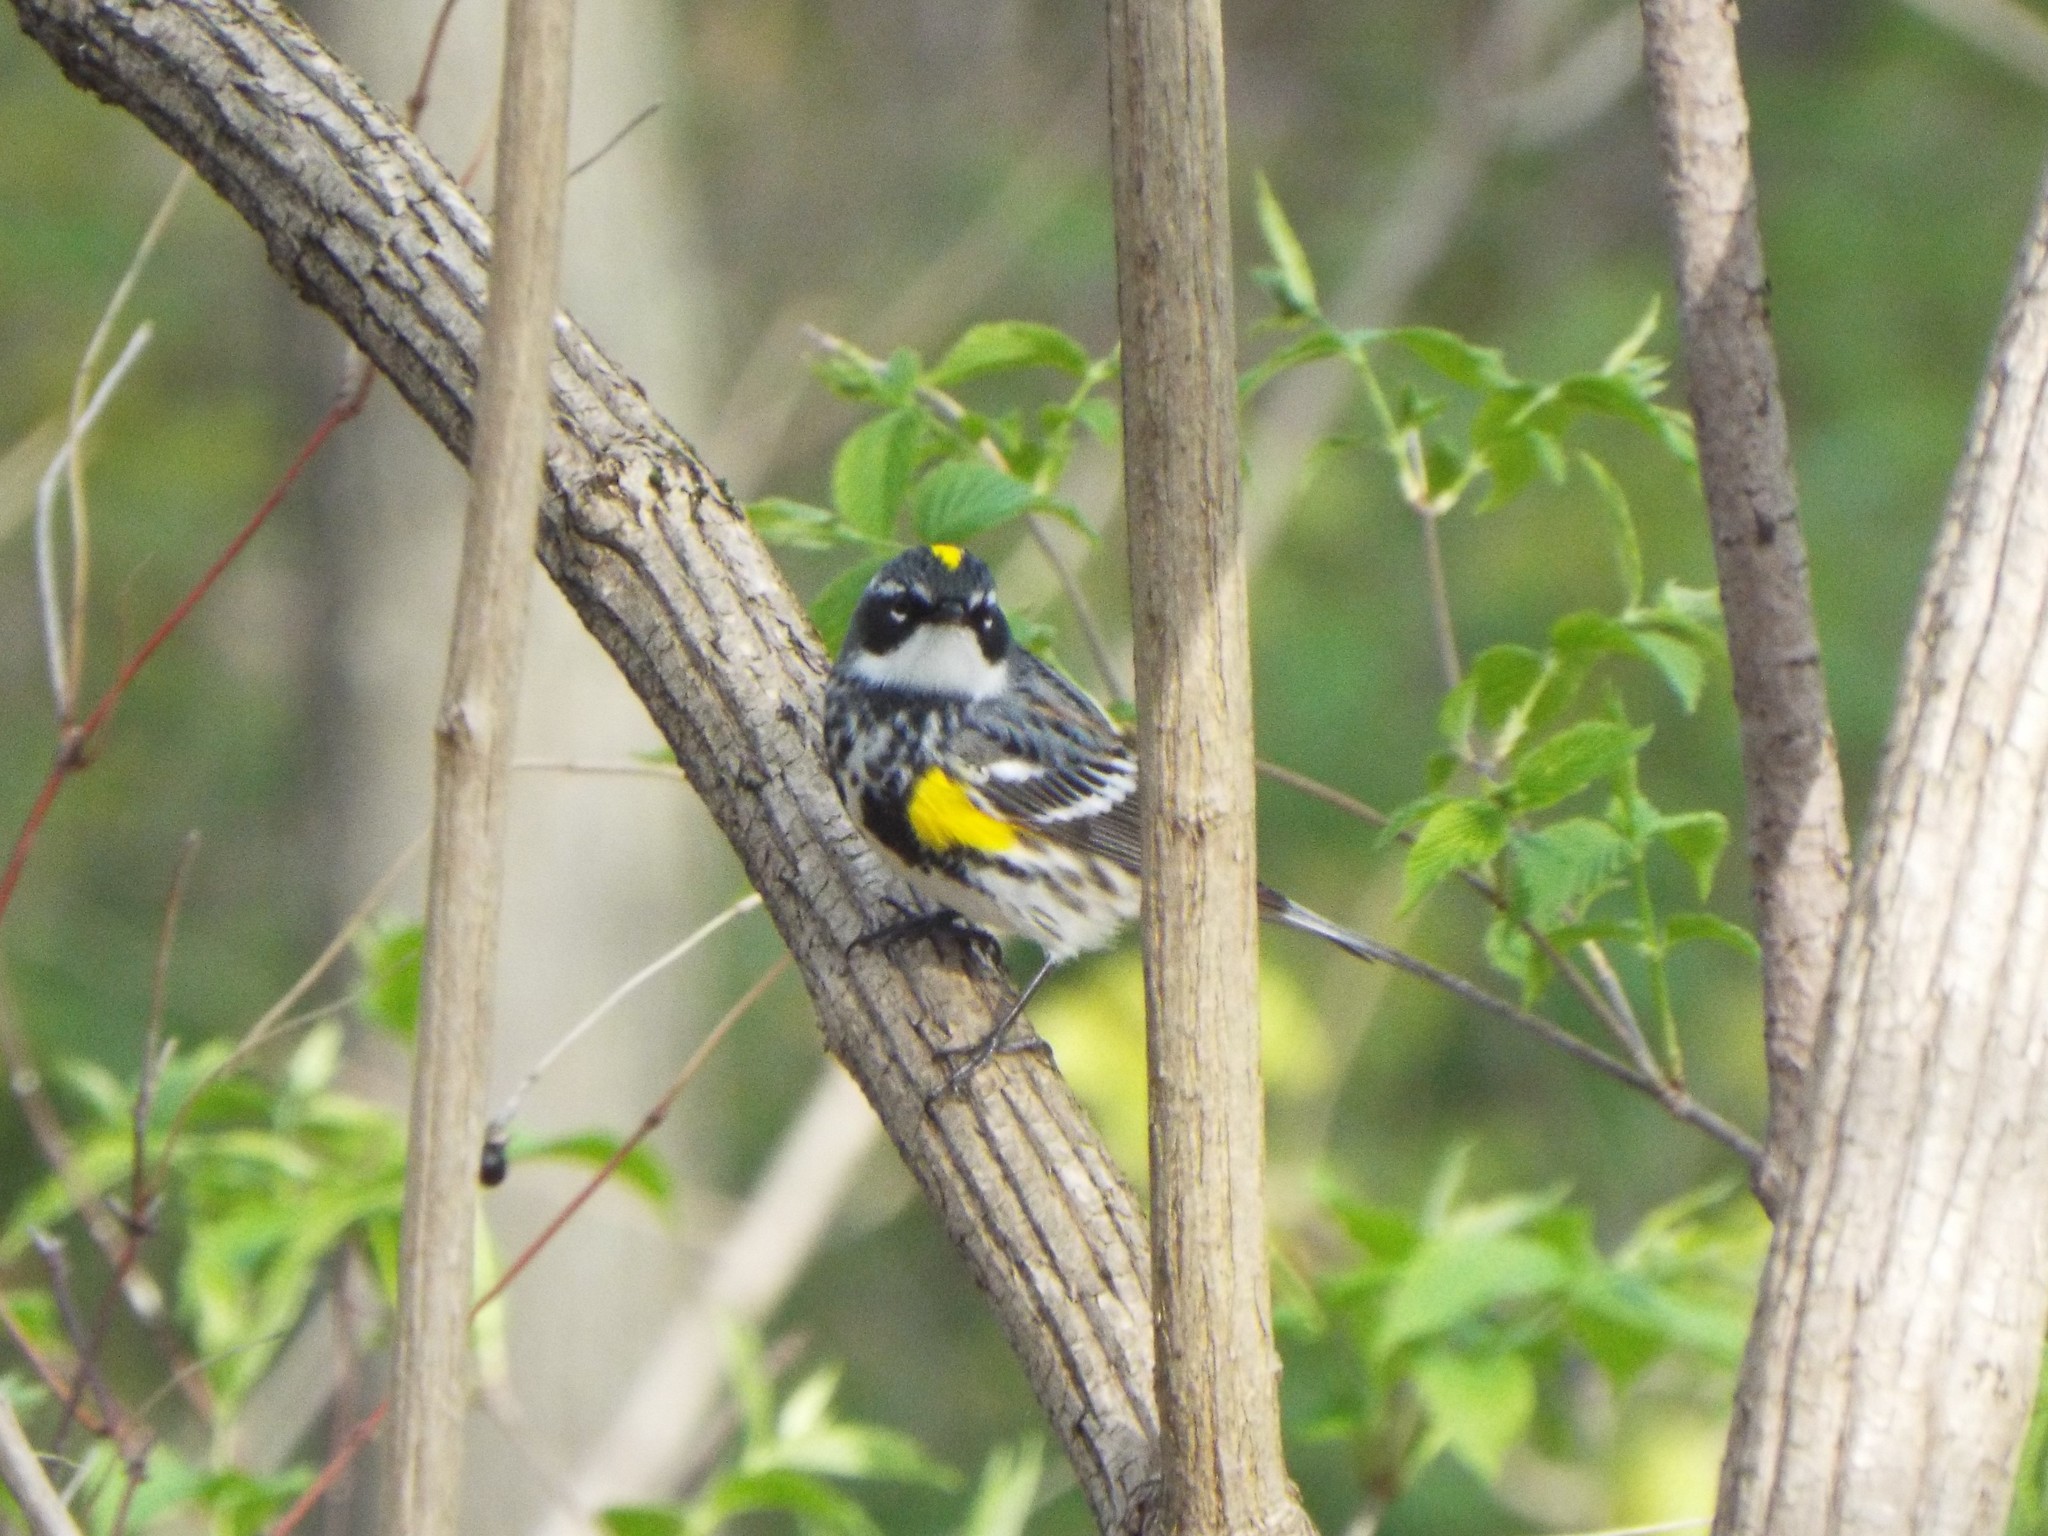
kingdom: Animalia
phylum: Chordata
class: Aves
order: Passeriformes
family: Parulidae
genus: Setophaga
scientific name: Setophaga coronata
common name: Myrtle warbler
